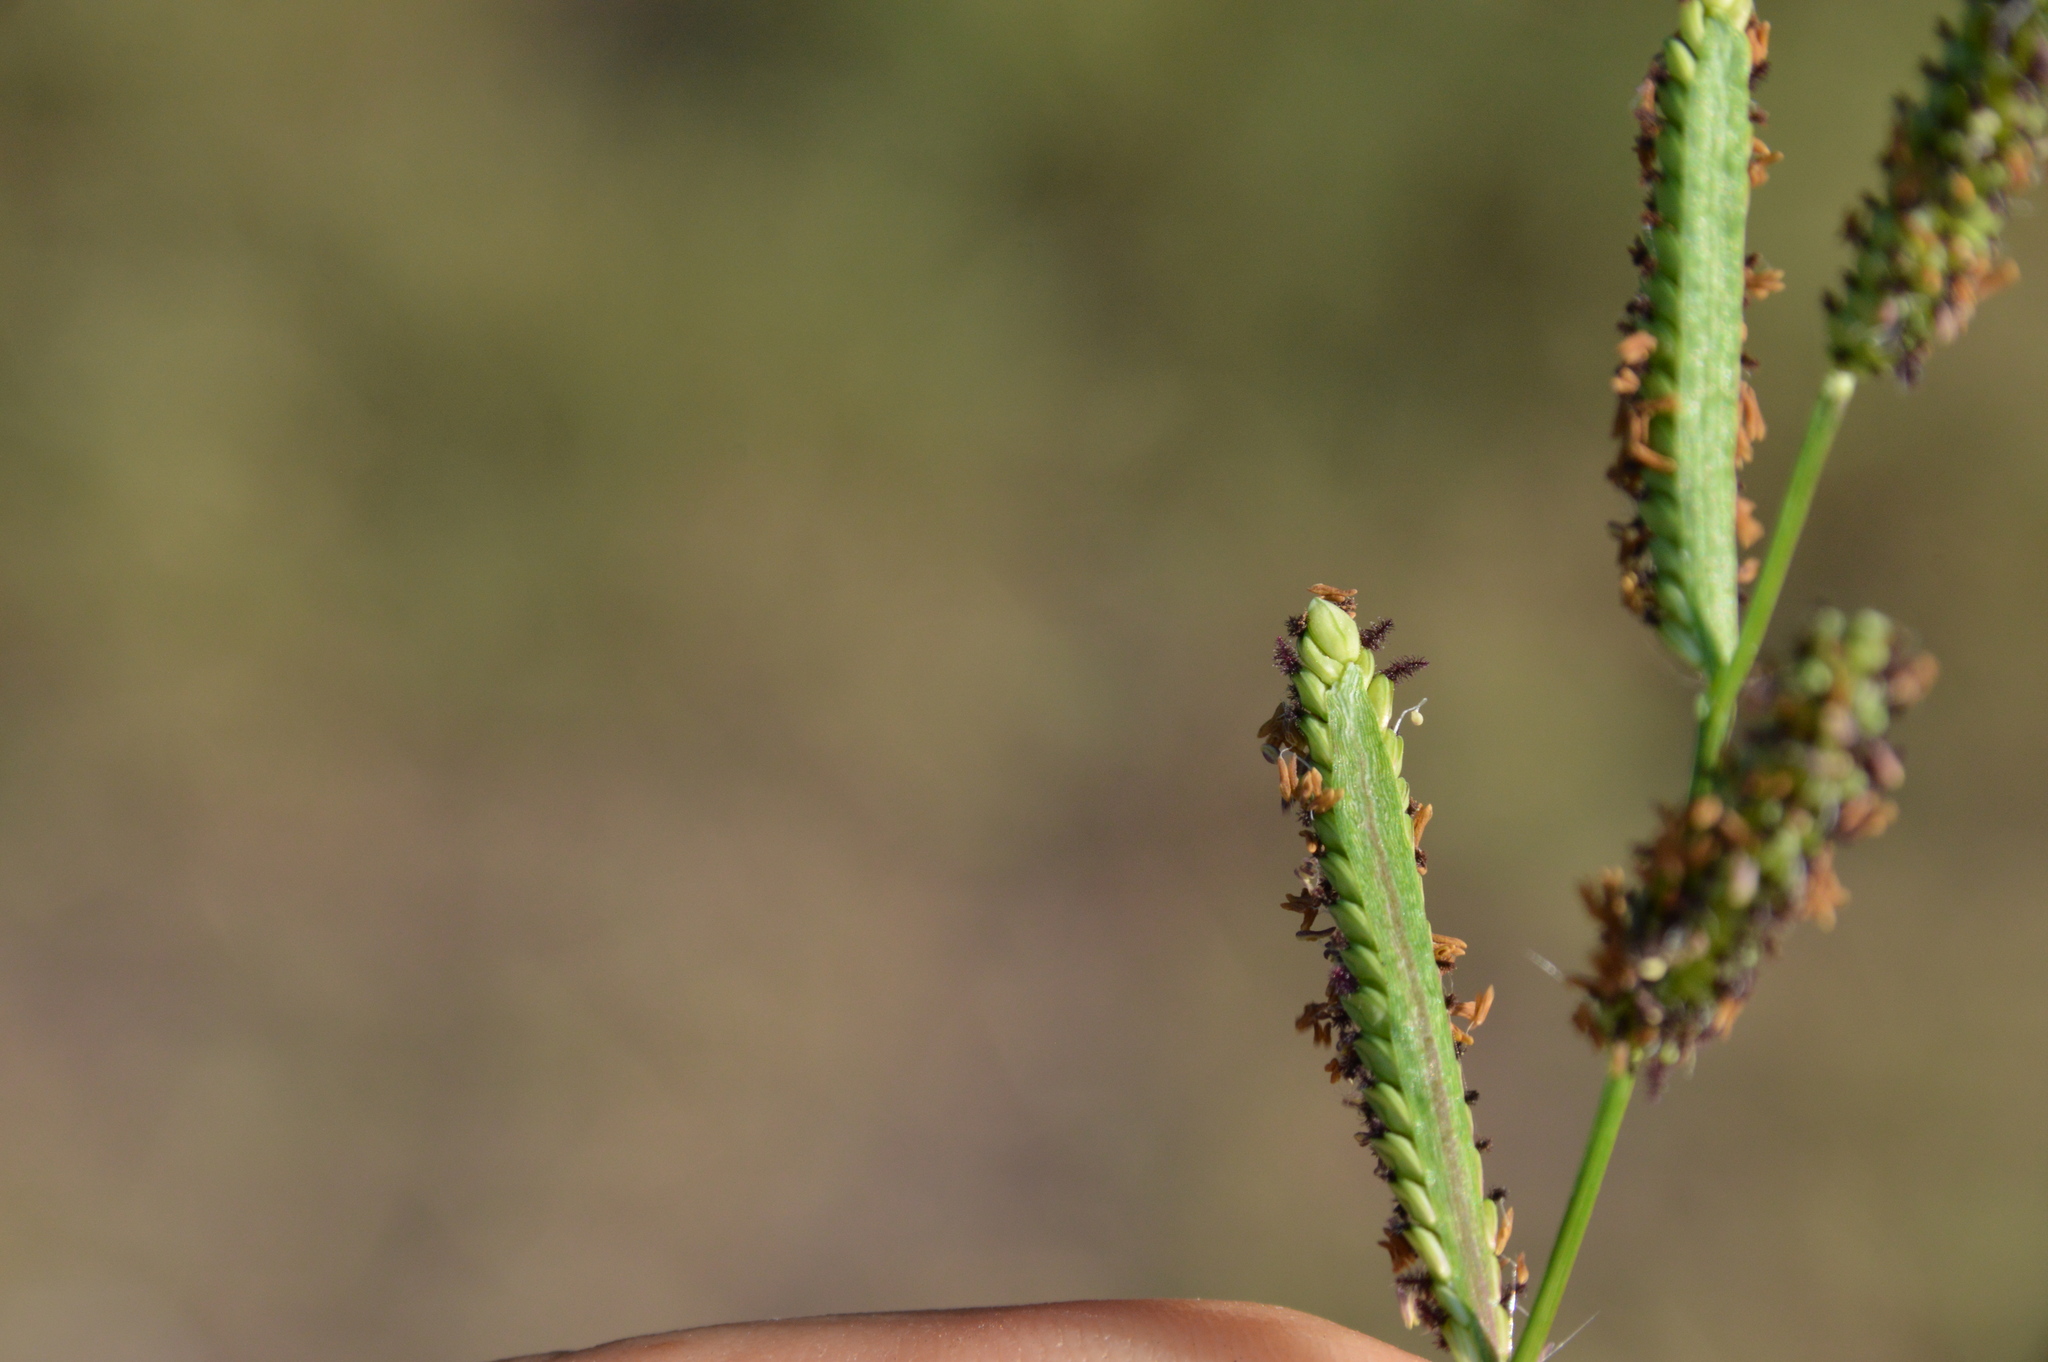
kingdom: Plantae
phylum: Tracheophyta
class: Liliopsida
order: Poales
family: Poaceae
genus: Paspalum
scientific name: Paspalum denticulatum
